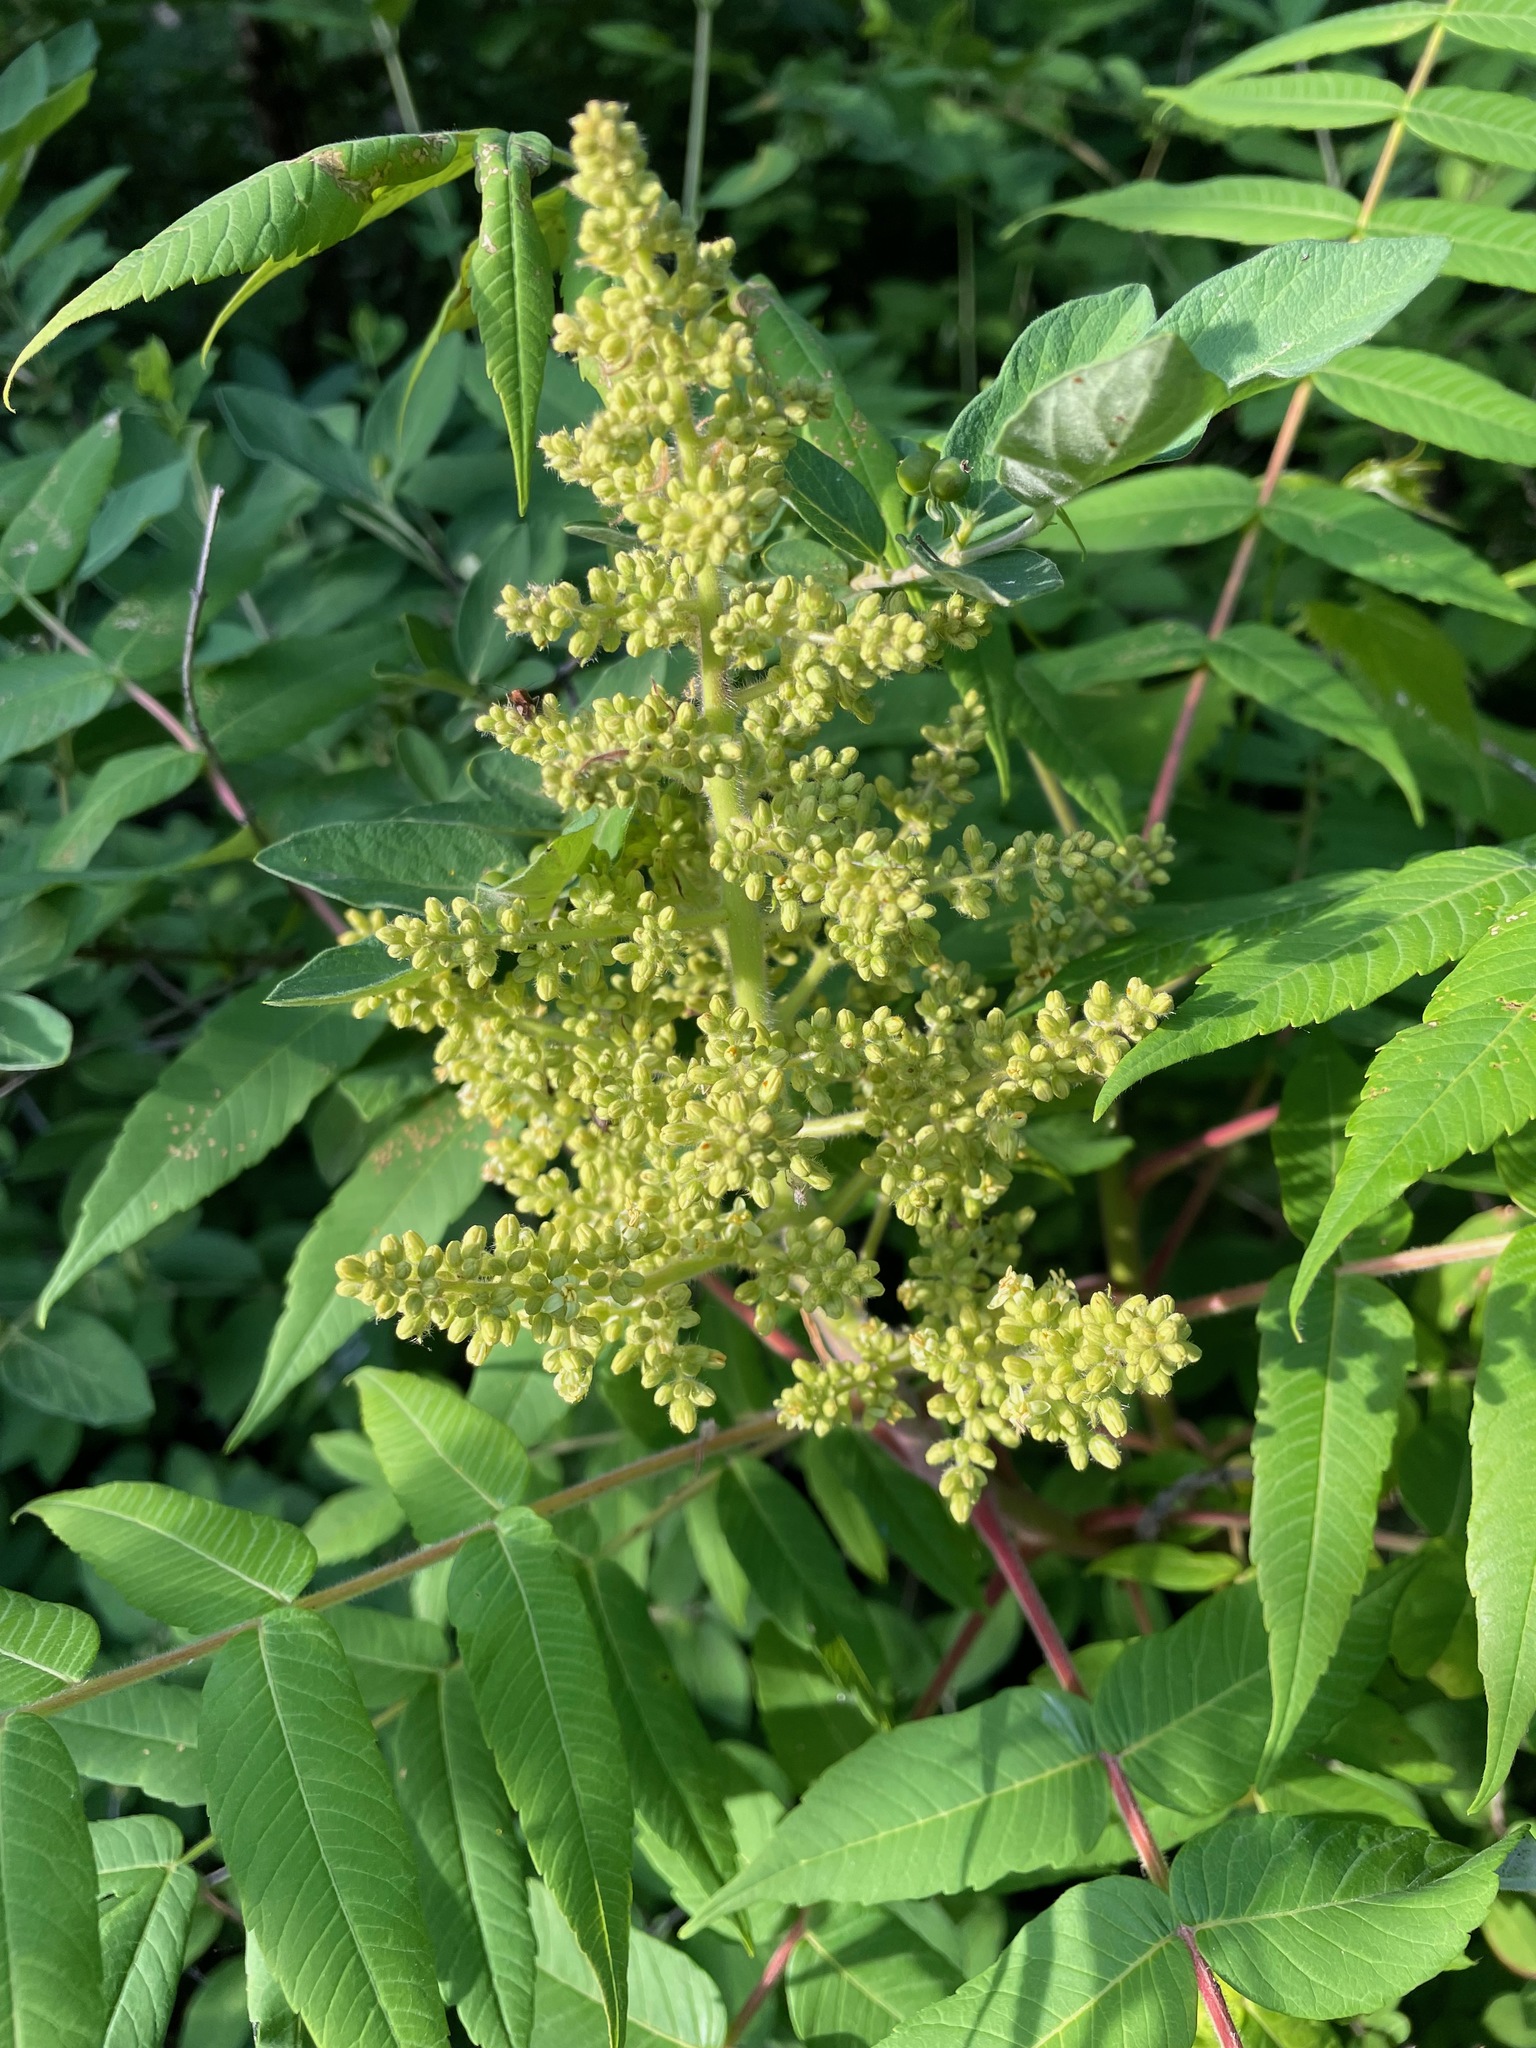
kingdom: Plantae
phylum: Tracheophyta
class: Magnoliopsida
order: Sapindales
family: Anacardiaceae
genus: Rhus
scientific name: Rhus typhina
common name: Staghorn sumac
